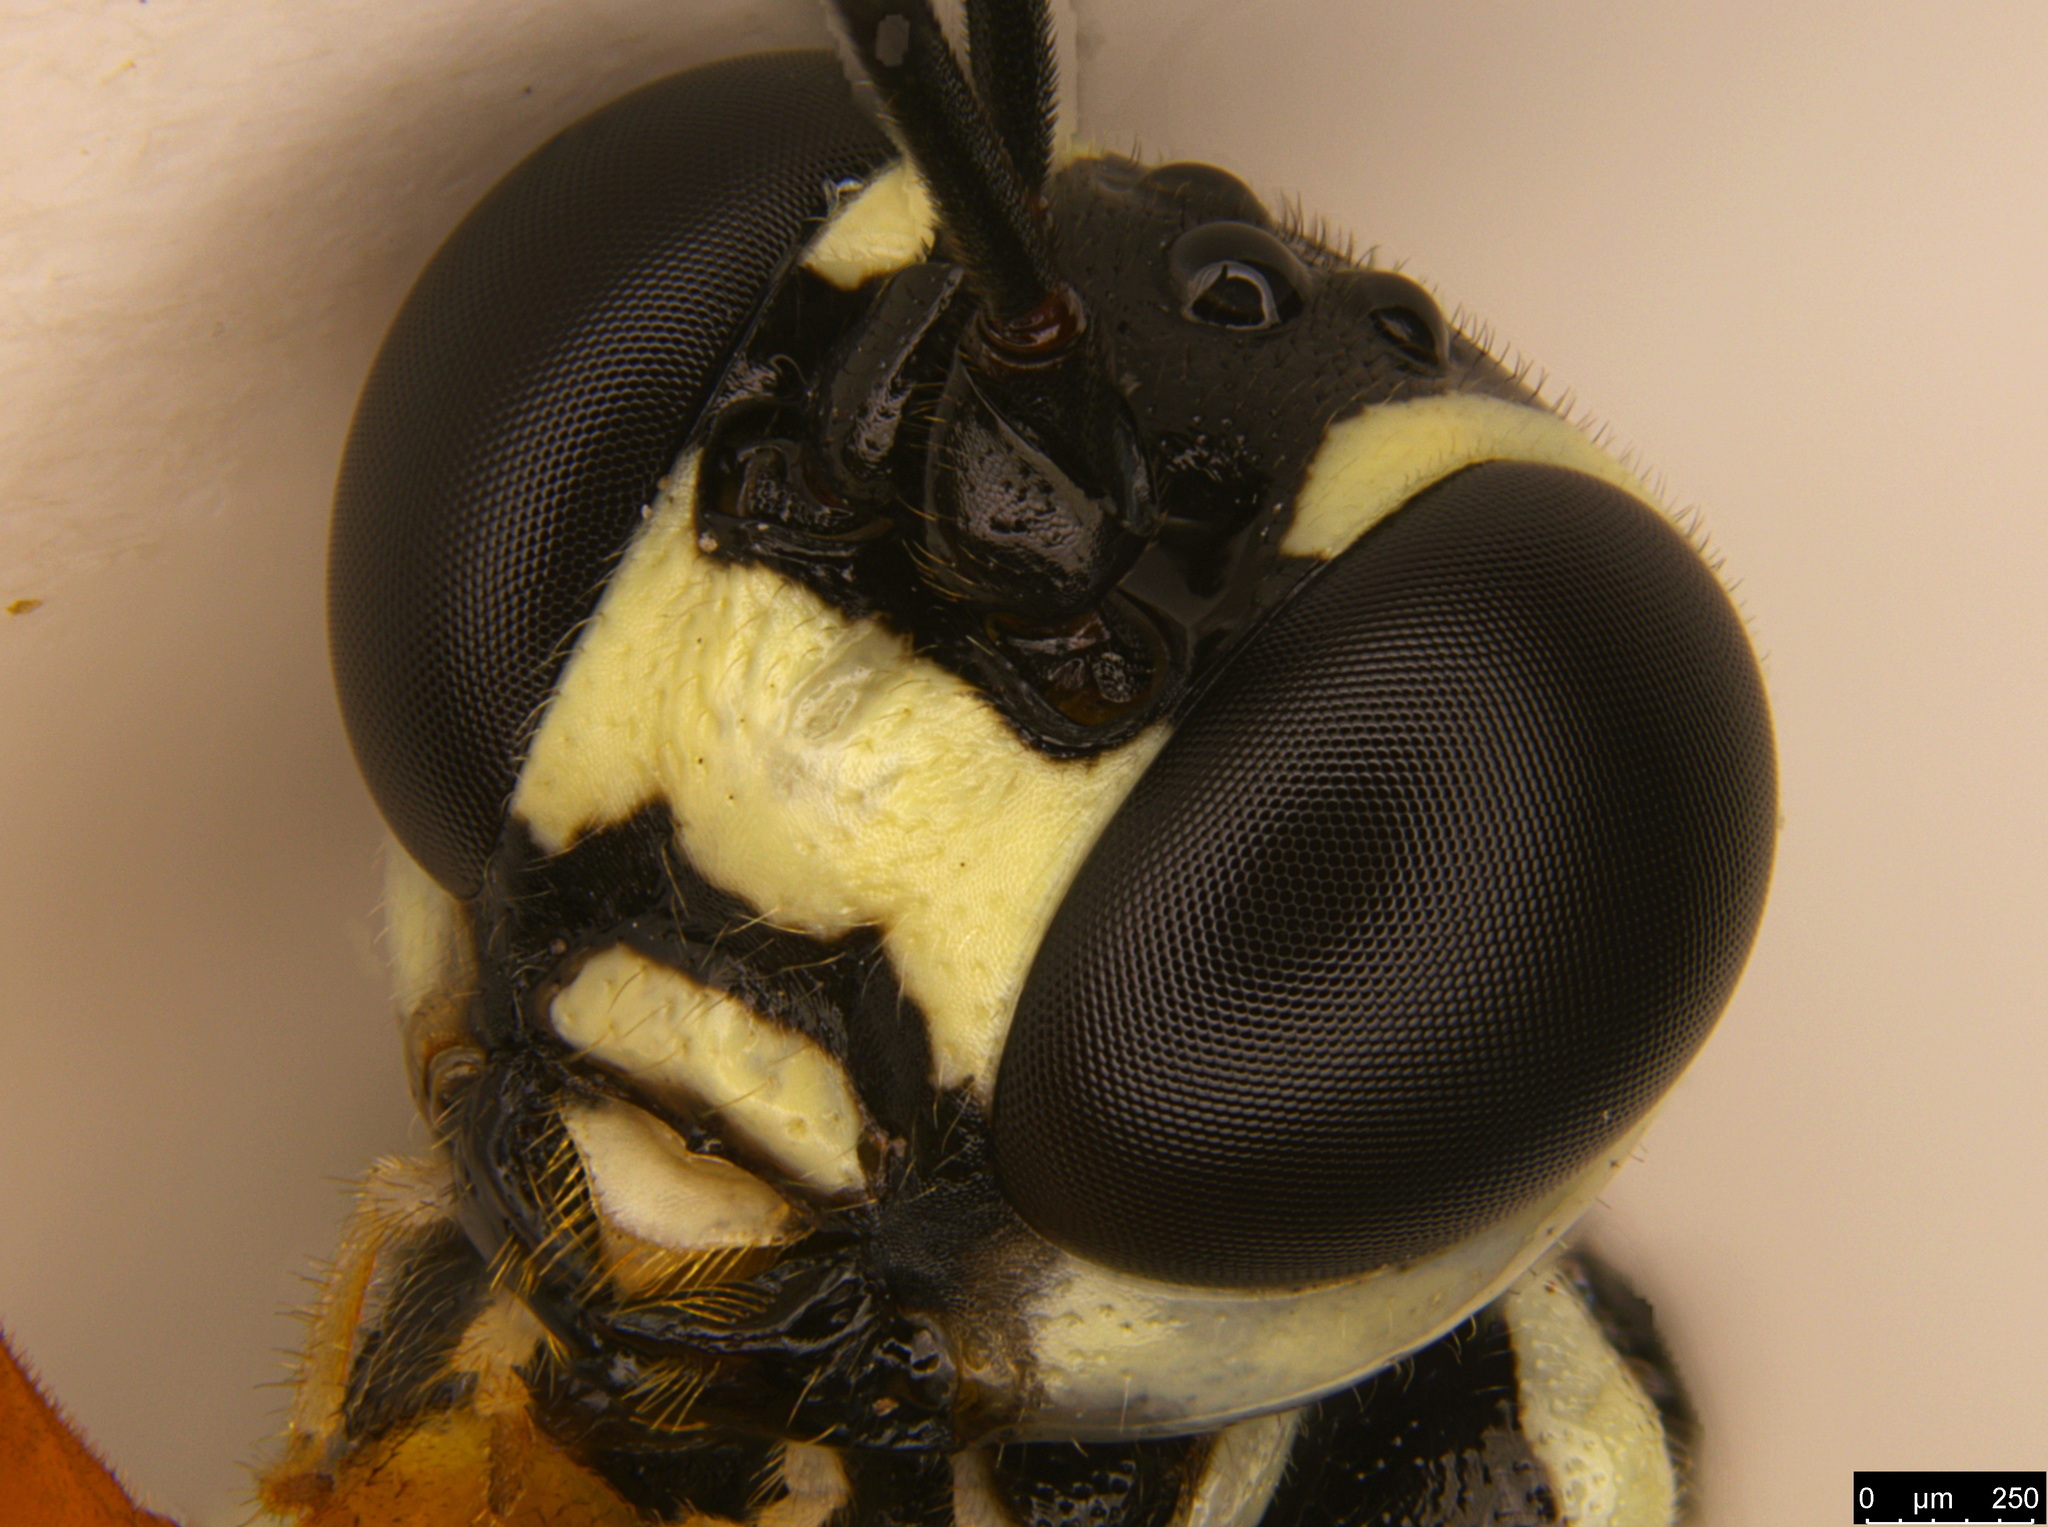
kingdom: Animalia
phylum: Arthropoda
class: Insecta
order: Hymenoptera
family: Ichneumonidae
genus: Xanthocryptus
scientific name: Xanthocryptus novozealandicus
